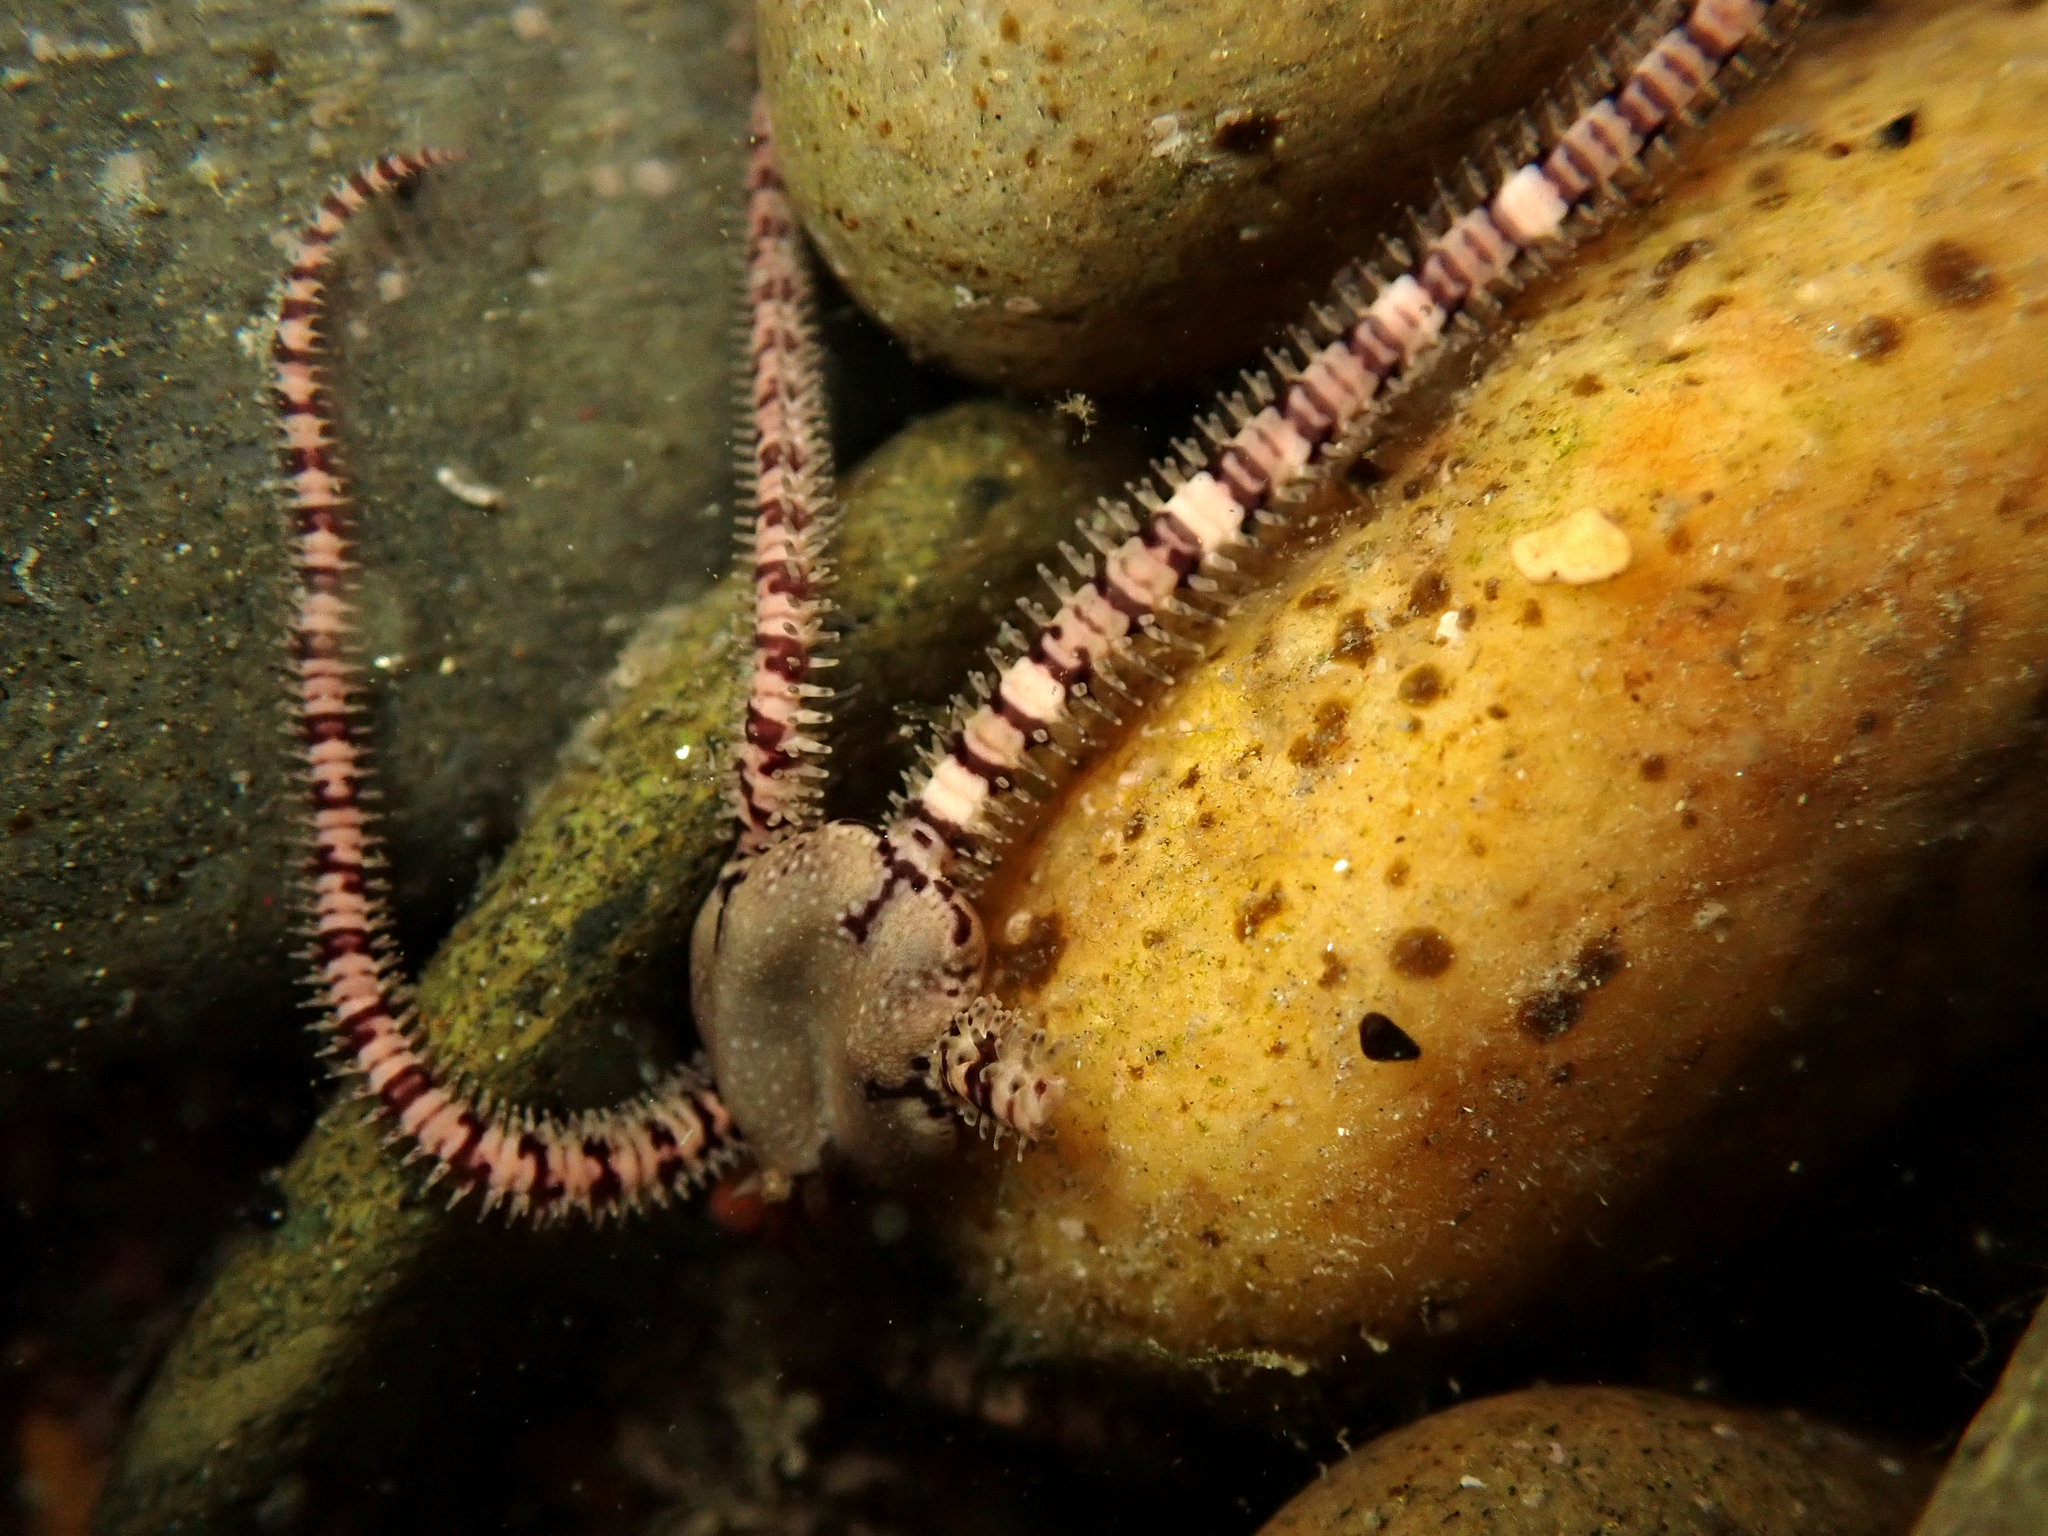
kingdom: Animalia
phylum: Echinodermata
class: Ophiuroidea
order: Amphilepidida
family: Ophionereididae
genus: Ophionereis
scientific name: Ophionereis fasciata
